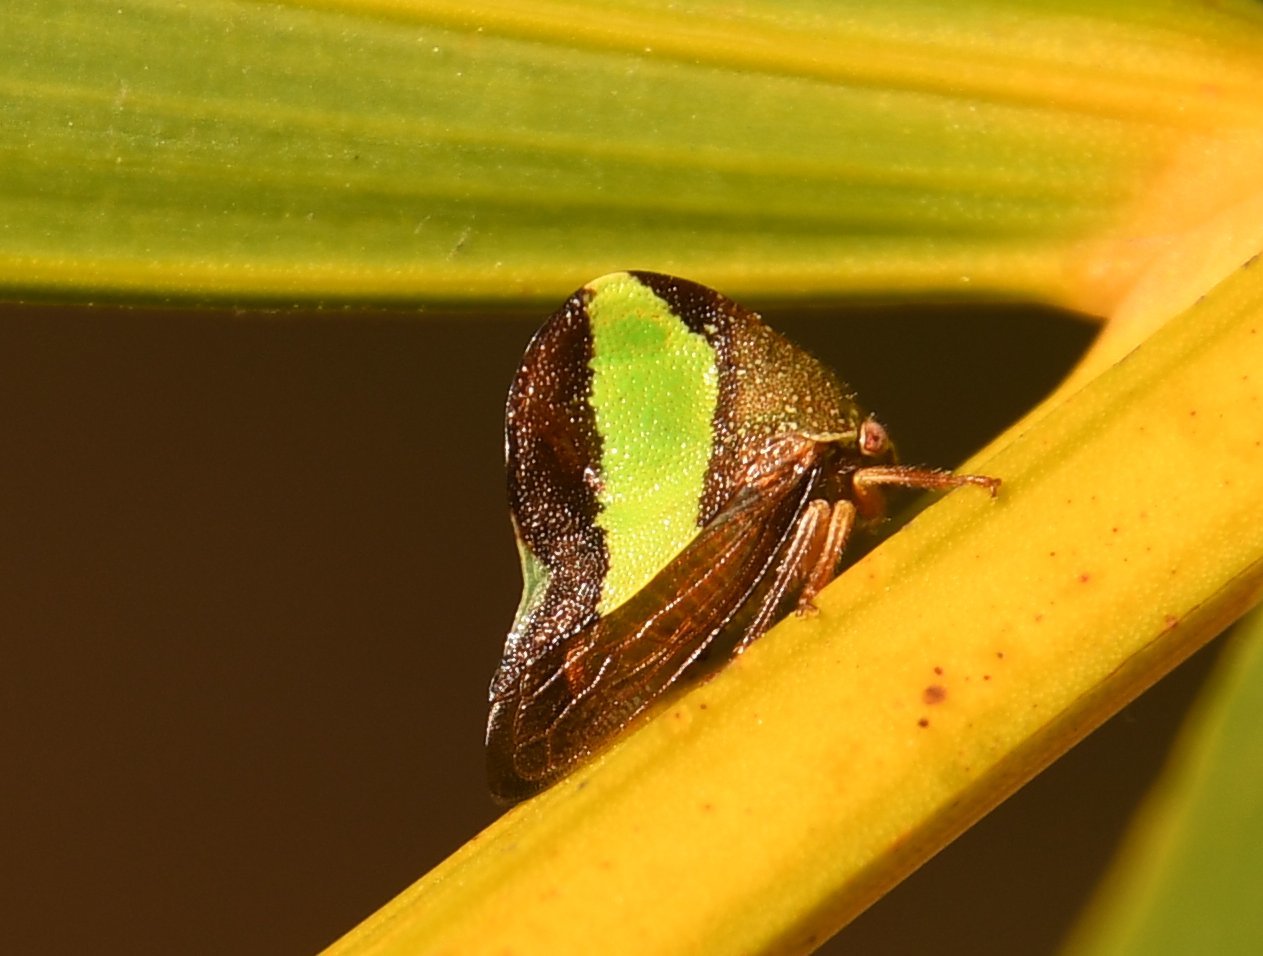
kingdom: Animalia
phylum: Arthropoda
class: Insecta
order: Hemiptera
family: Membracidae
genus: Smilia
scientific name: Smilia camelus
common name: Camel treehopper
